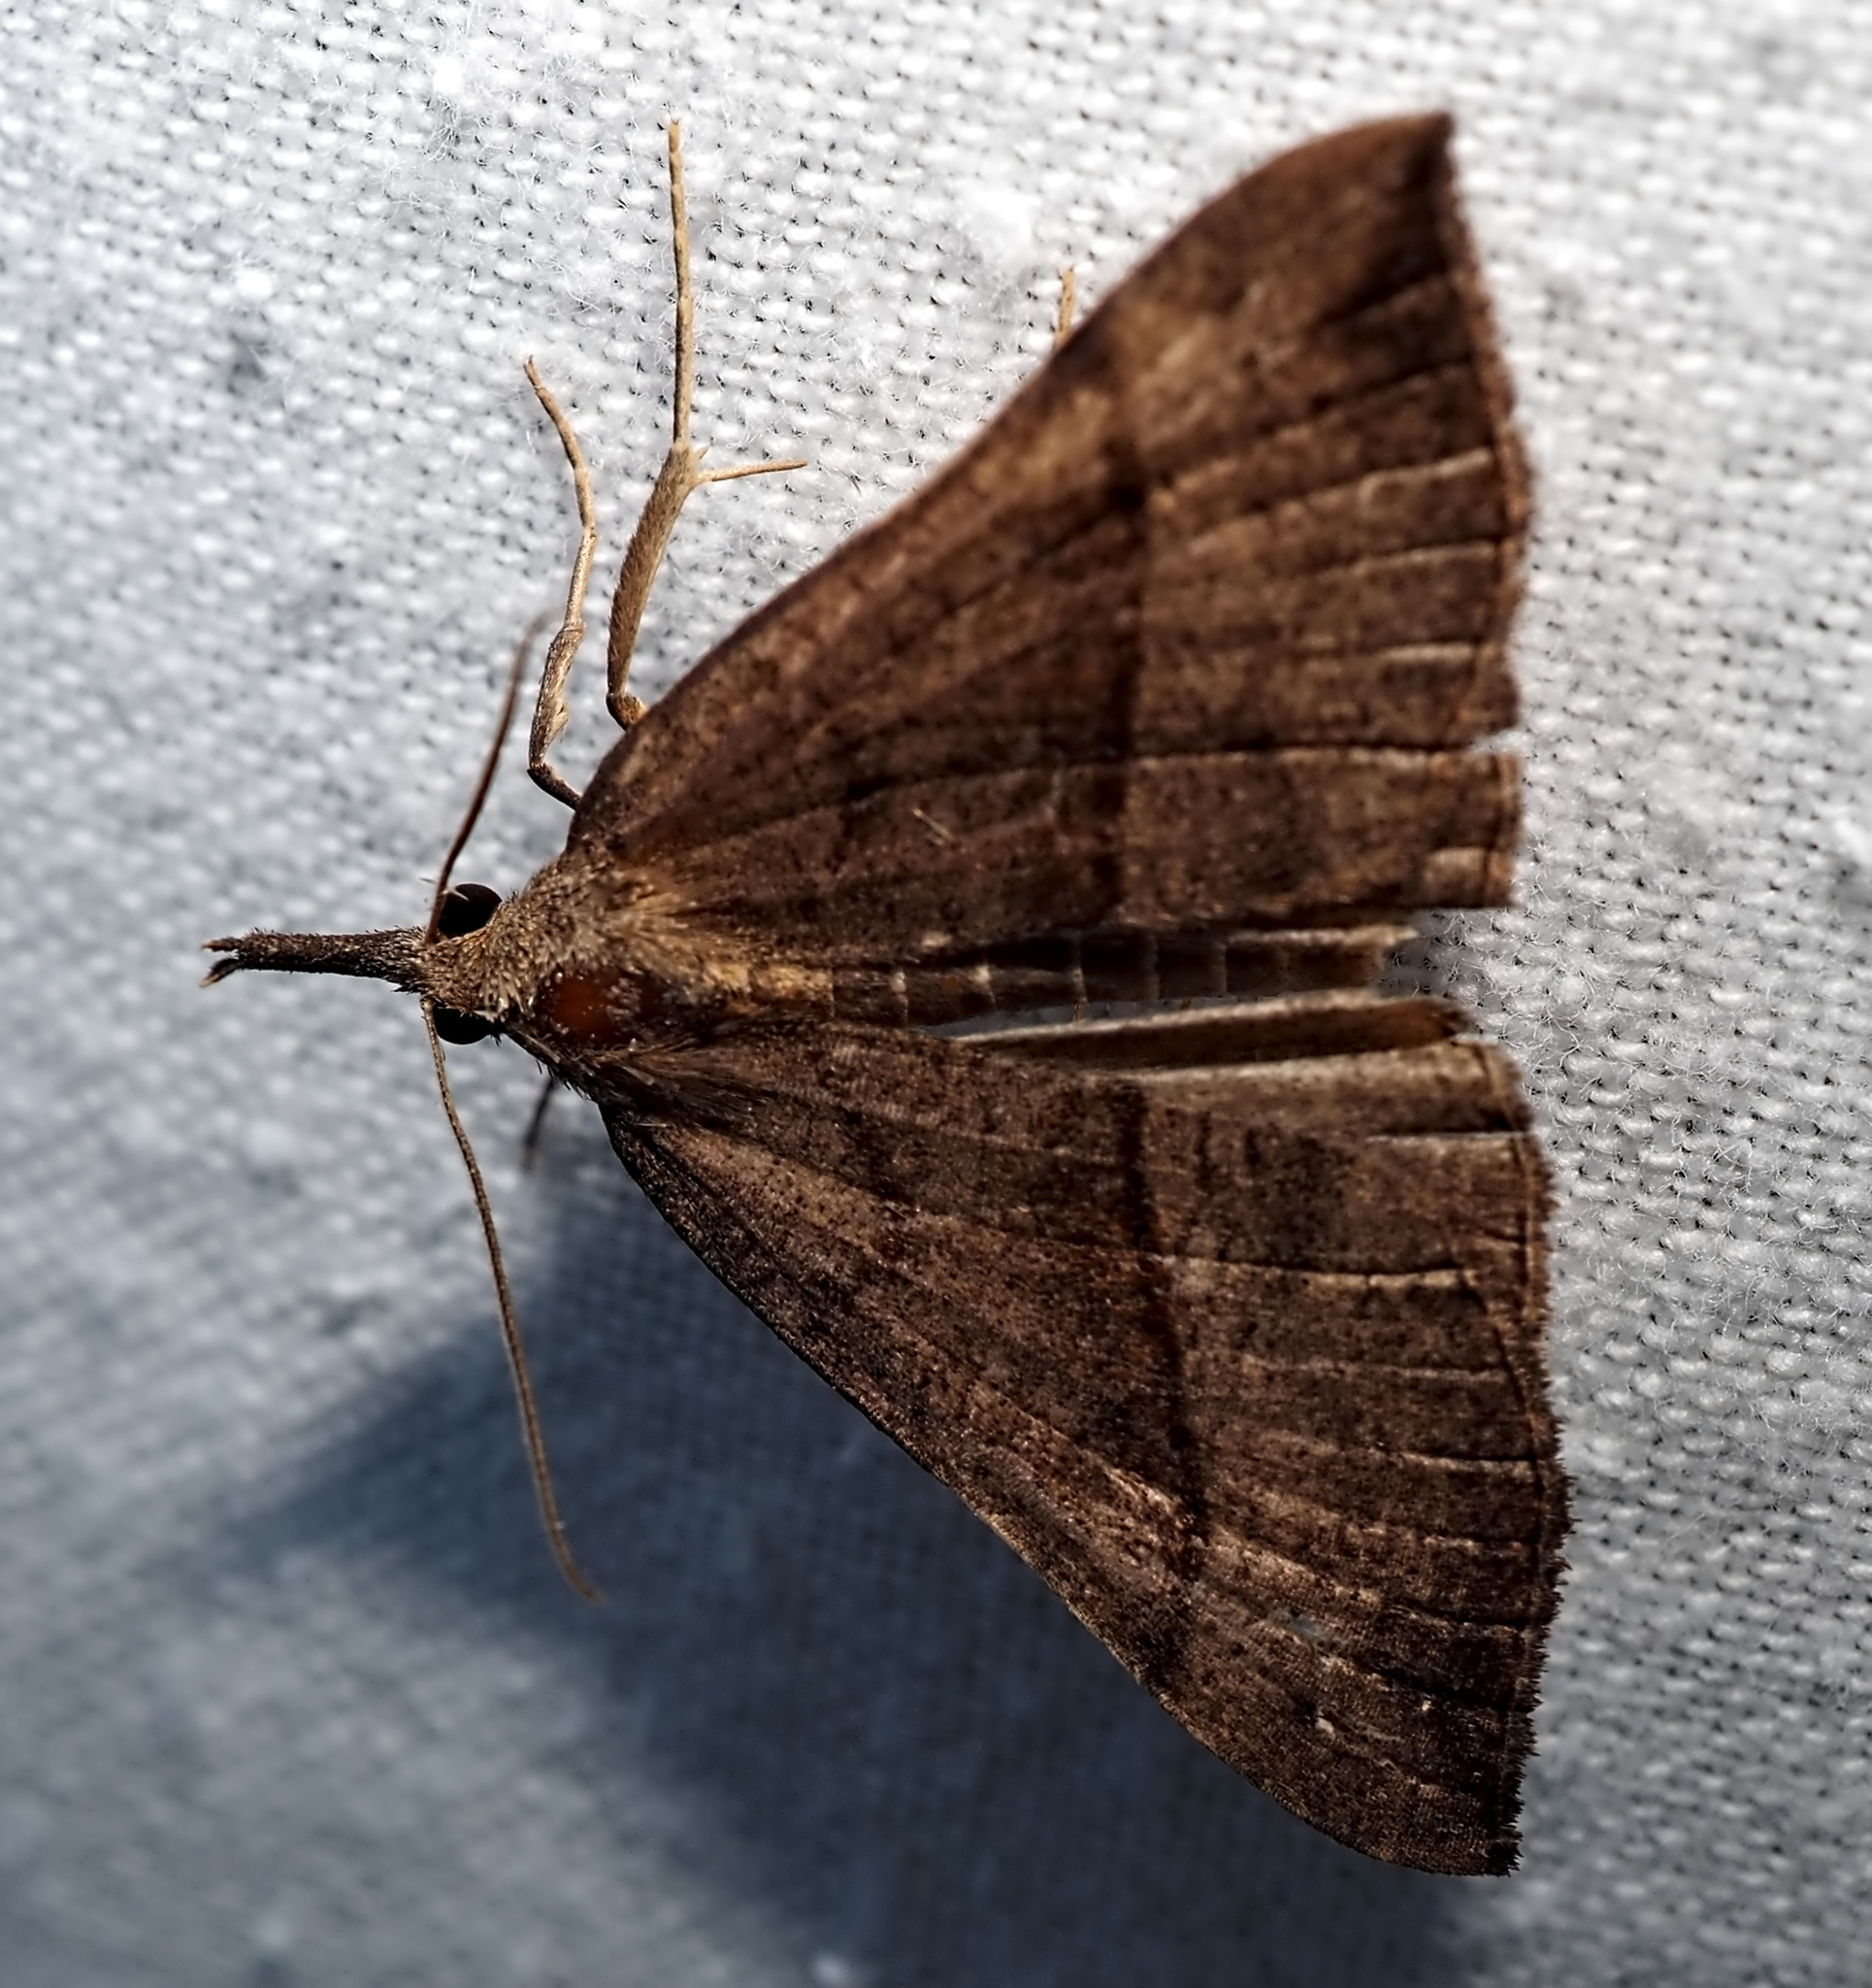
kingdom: Animalia
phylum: Arthropoda
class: Insecta
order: Lepidoptera
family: Erebidae
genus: Hypena
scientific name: Hypena proboscidalis
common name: Snout
